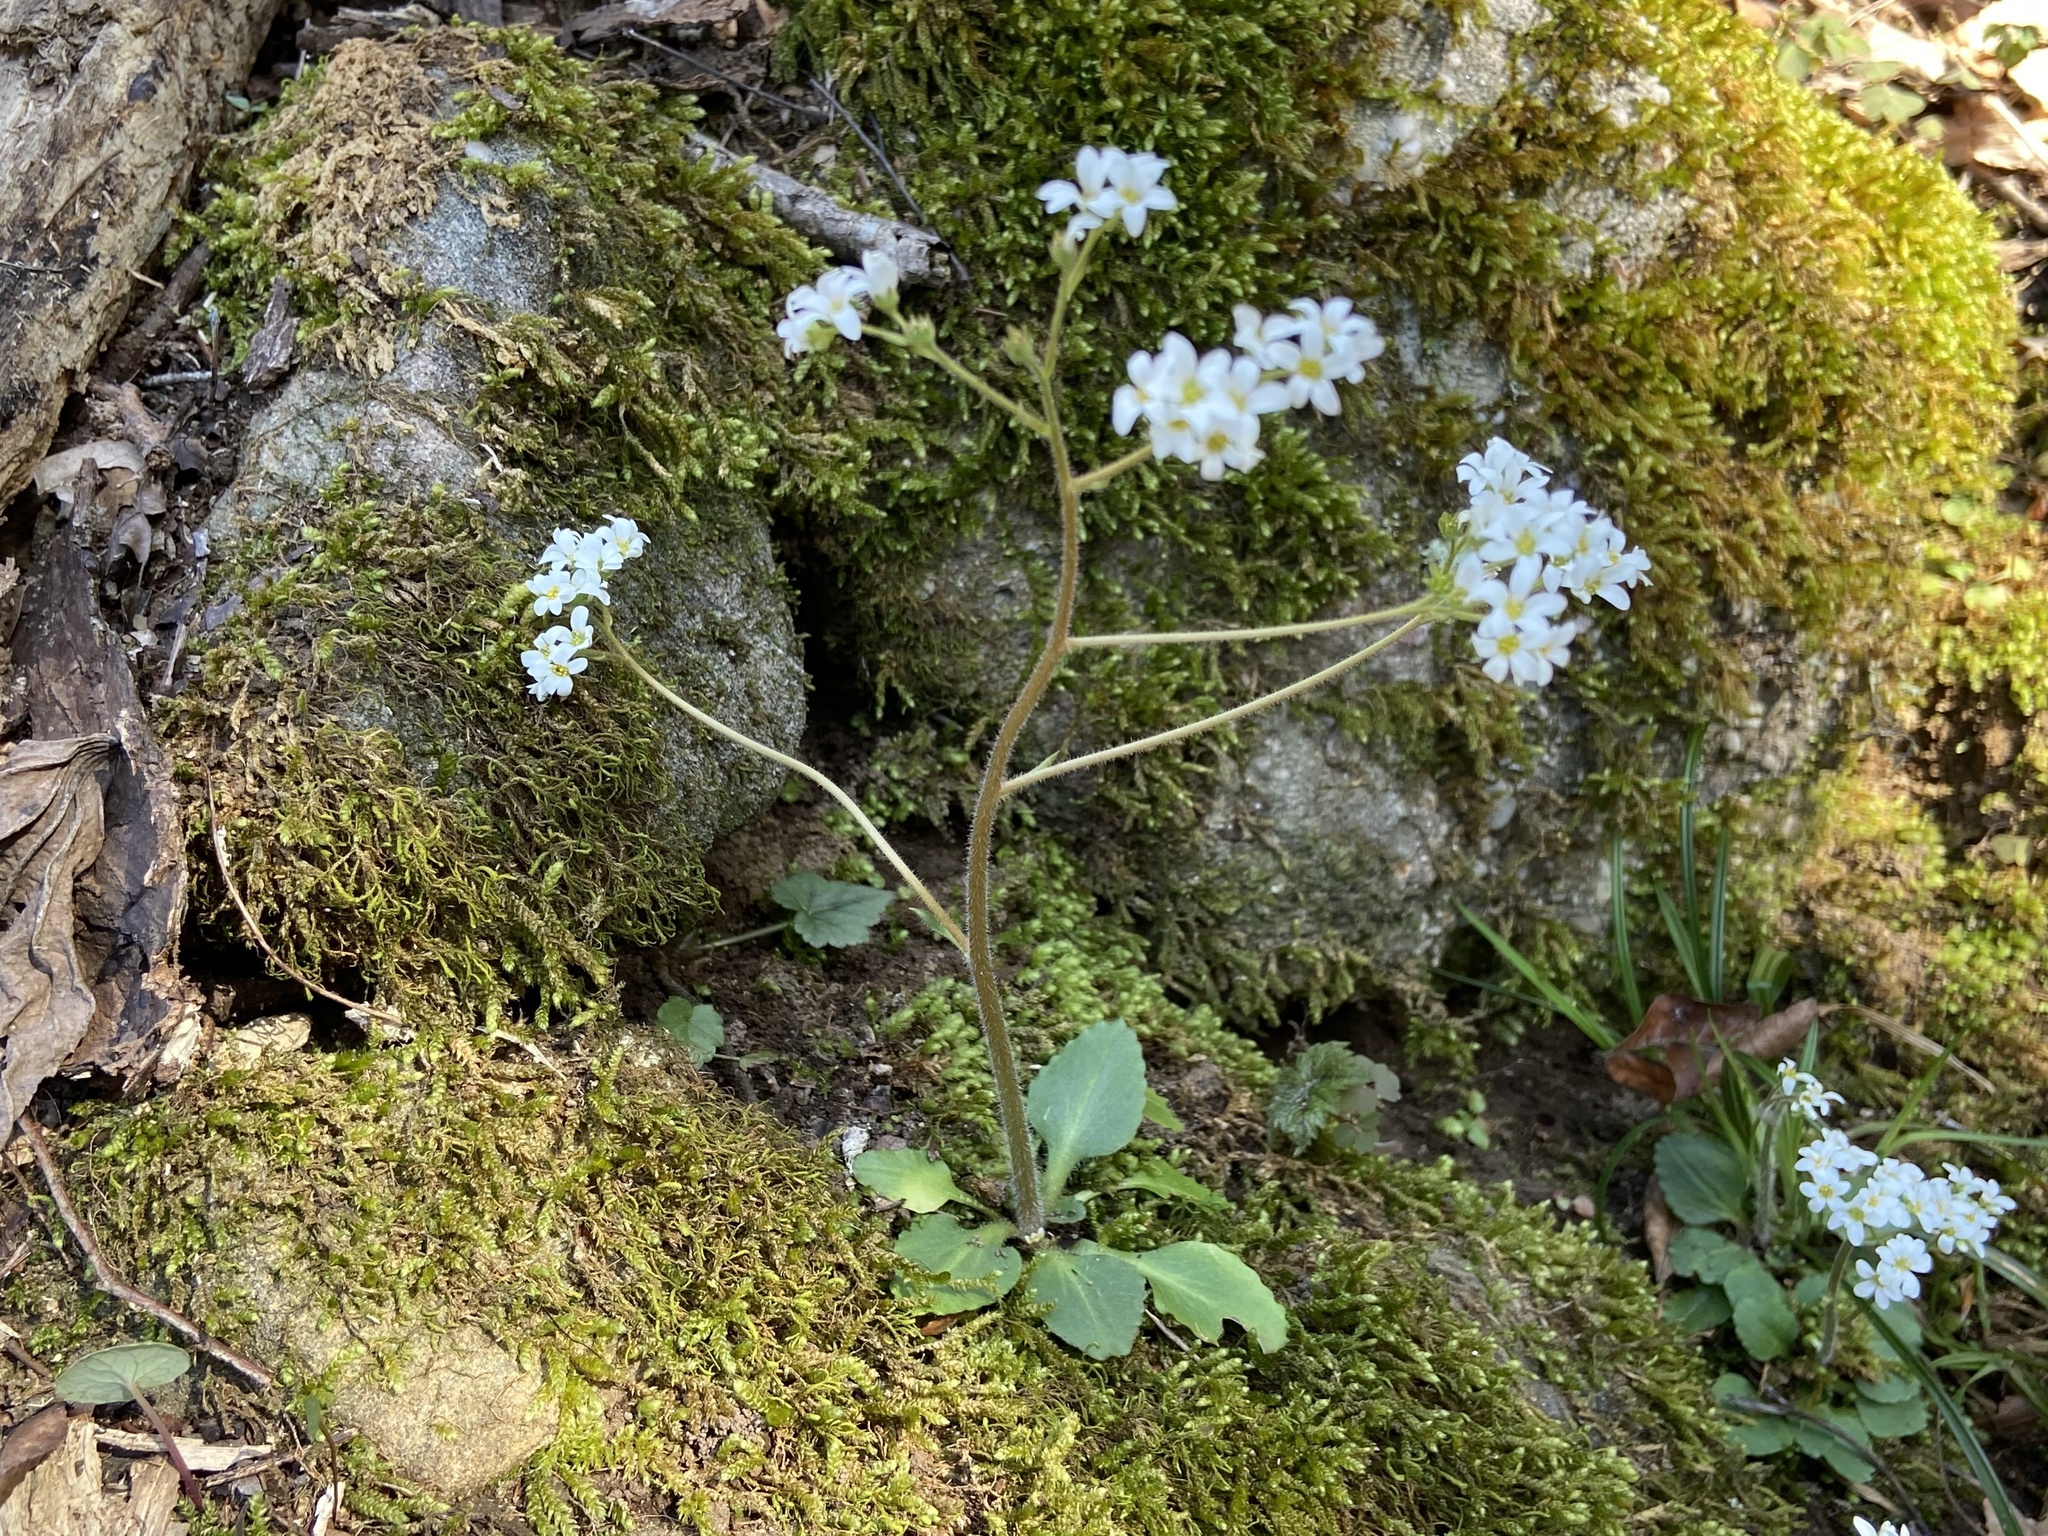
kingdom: Plantae
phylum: Tracheophyta
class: Magnoliopsida
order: Saxifragales
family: Saxifragaceae
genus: Micranthes
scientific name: Micranthes virginiensis
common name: Early saxifrage
